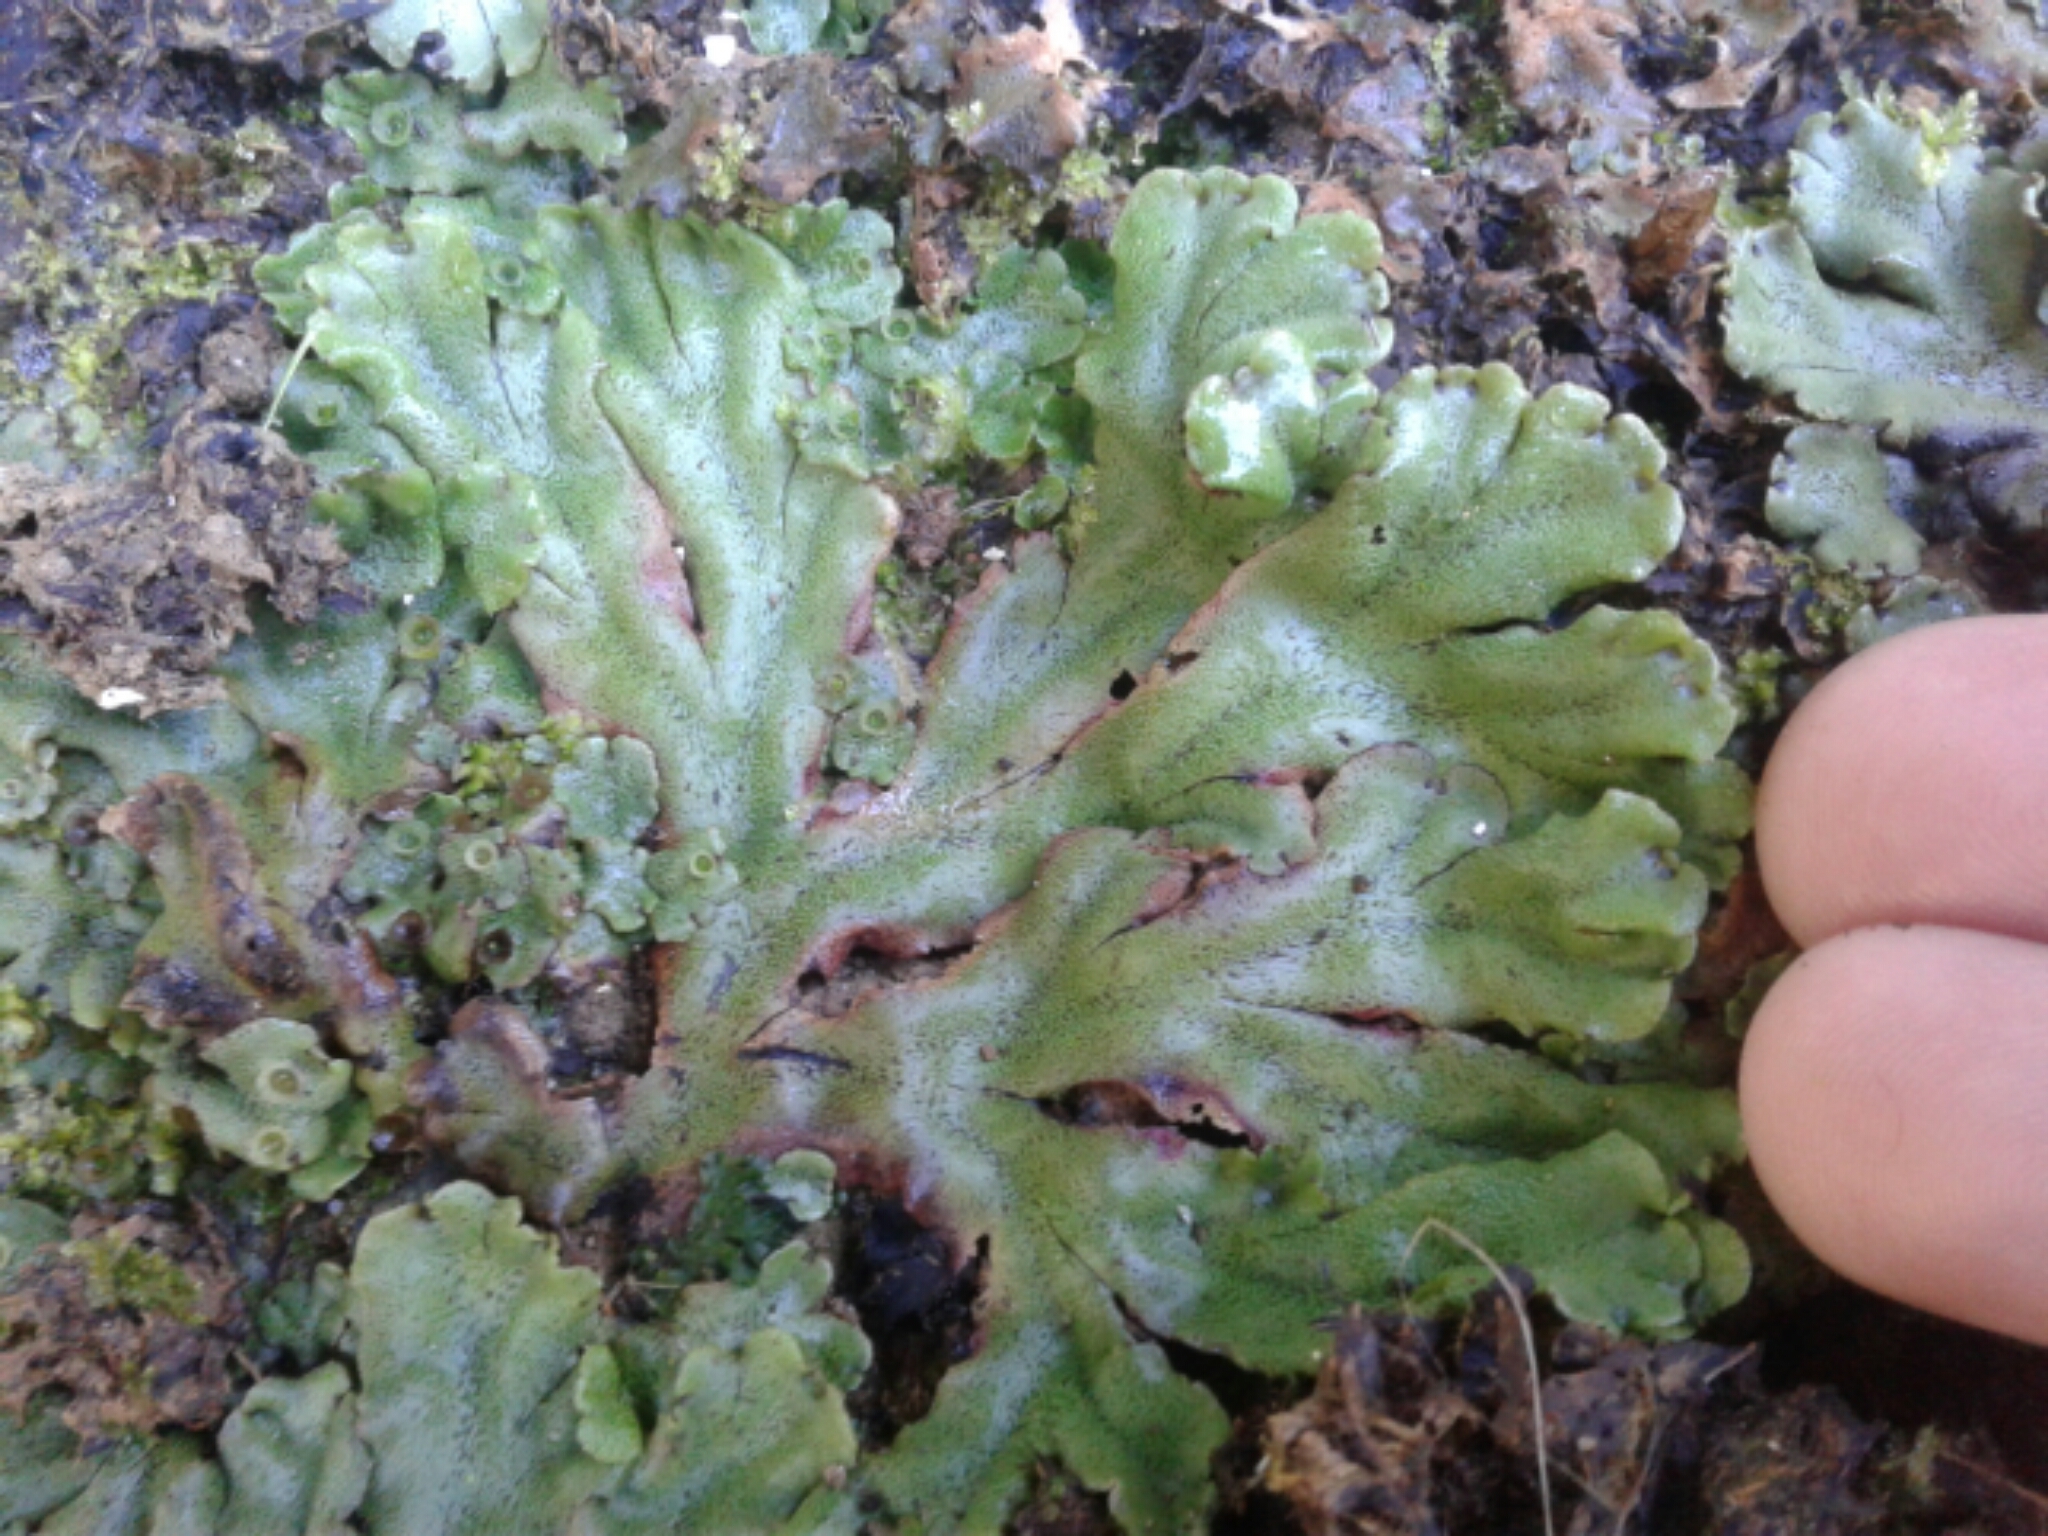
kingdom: Plantae
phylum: Marchantiophyta
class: Marchantiopsida
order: Marchantiales
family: Marchantiaceae
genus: Marchantia
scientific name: Marchantia
